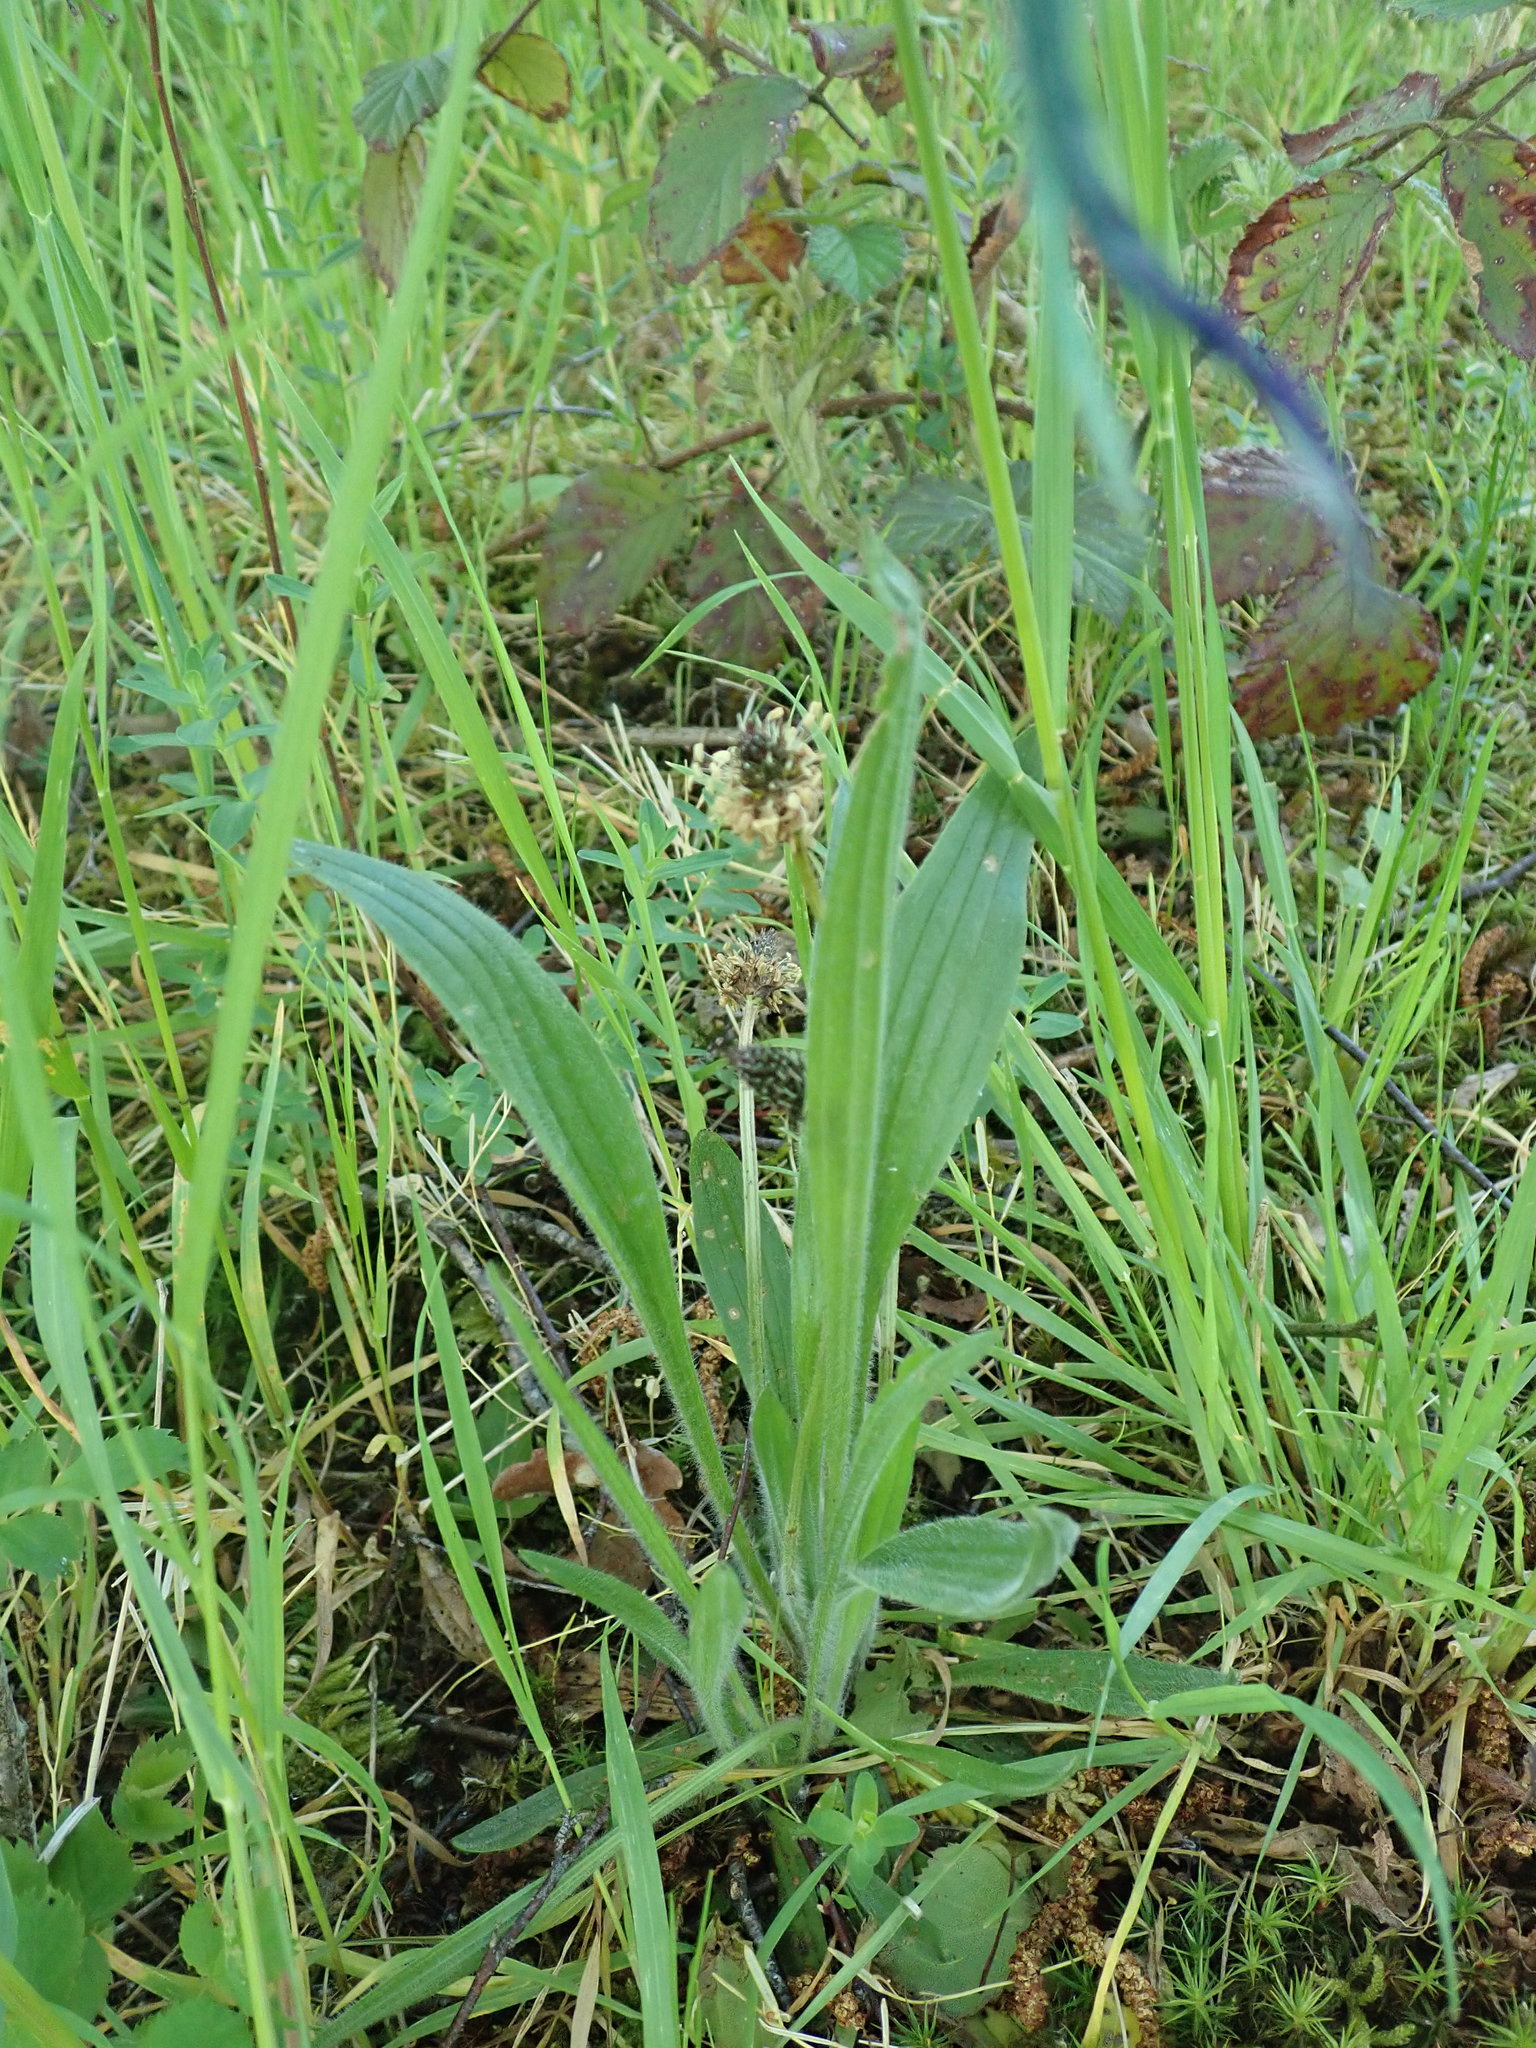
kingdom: Plantae
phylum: Tracheophyta
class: Magnoliopsida
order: Lamiales
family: Plantaginaceae
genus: Plantago
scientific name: Plantago lanceolata
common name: Ribwort plantain
